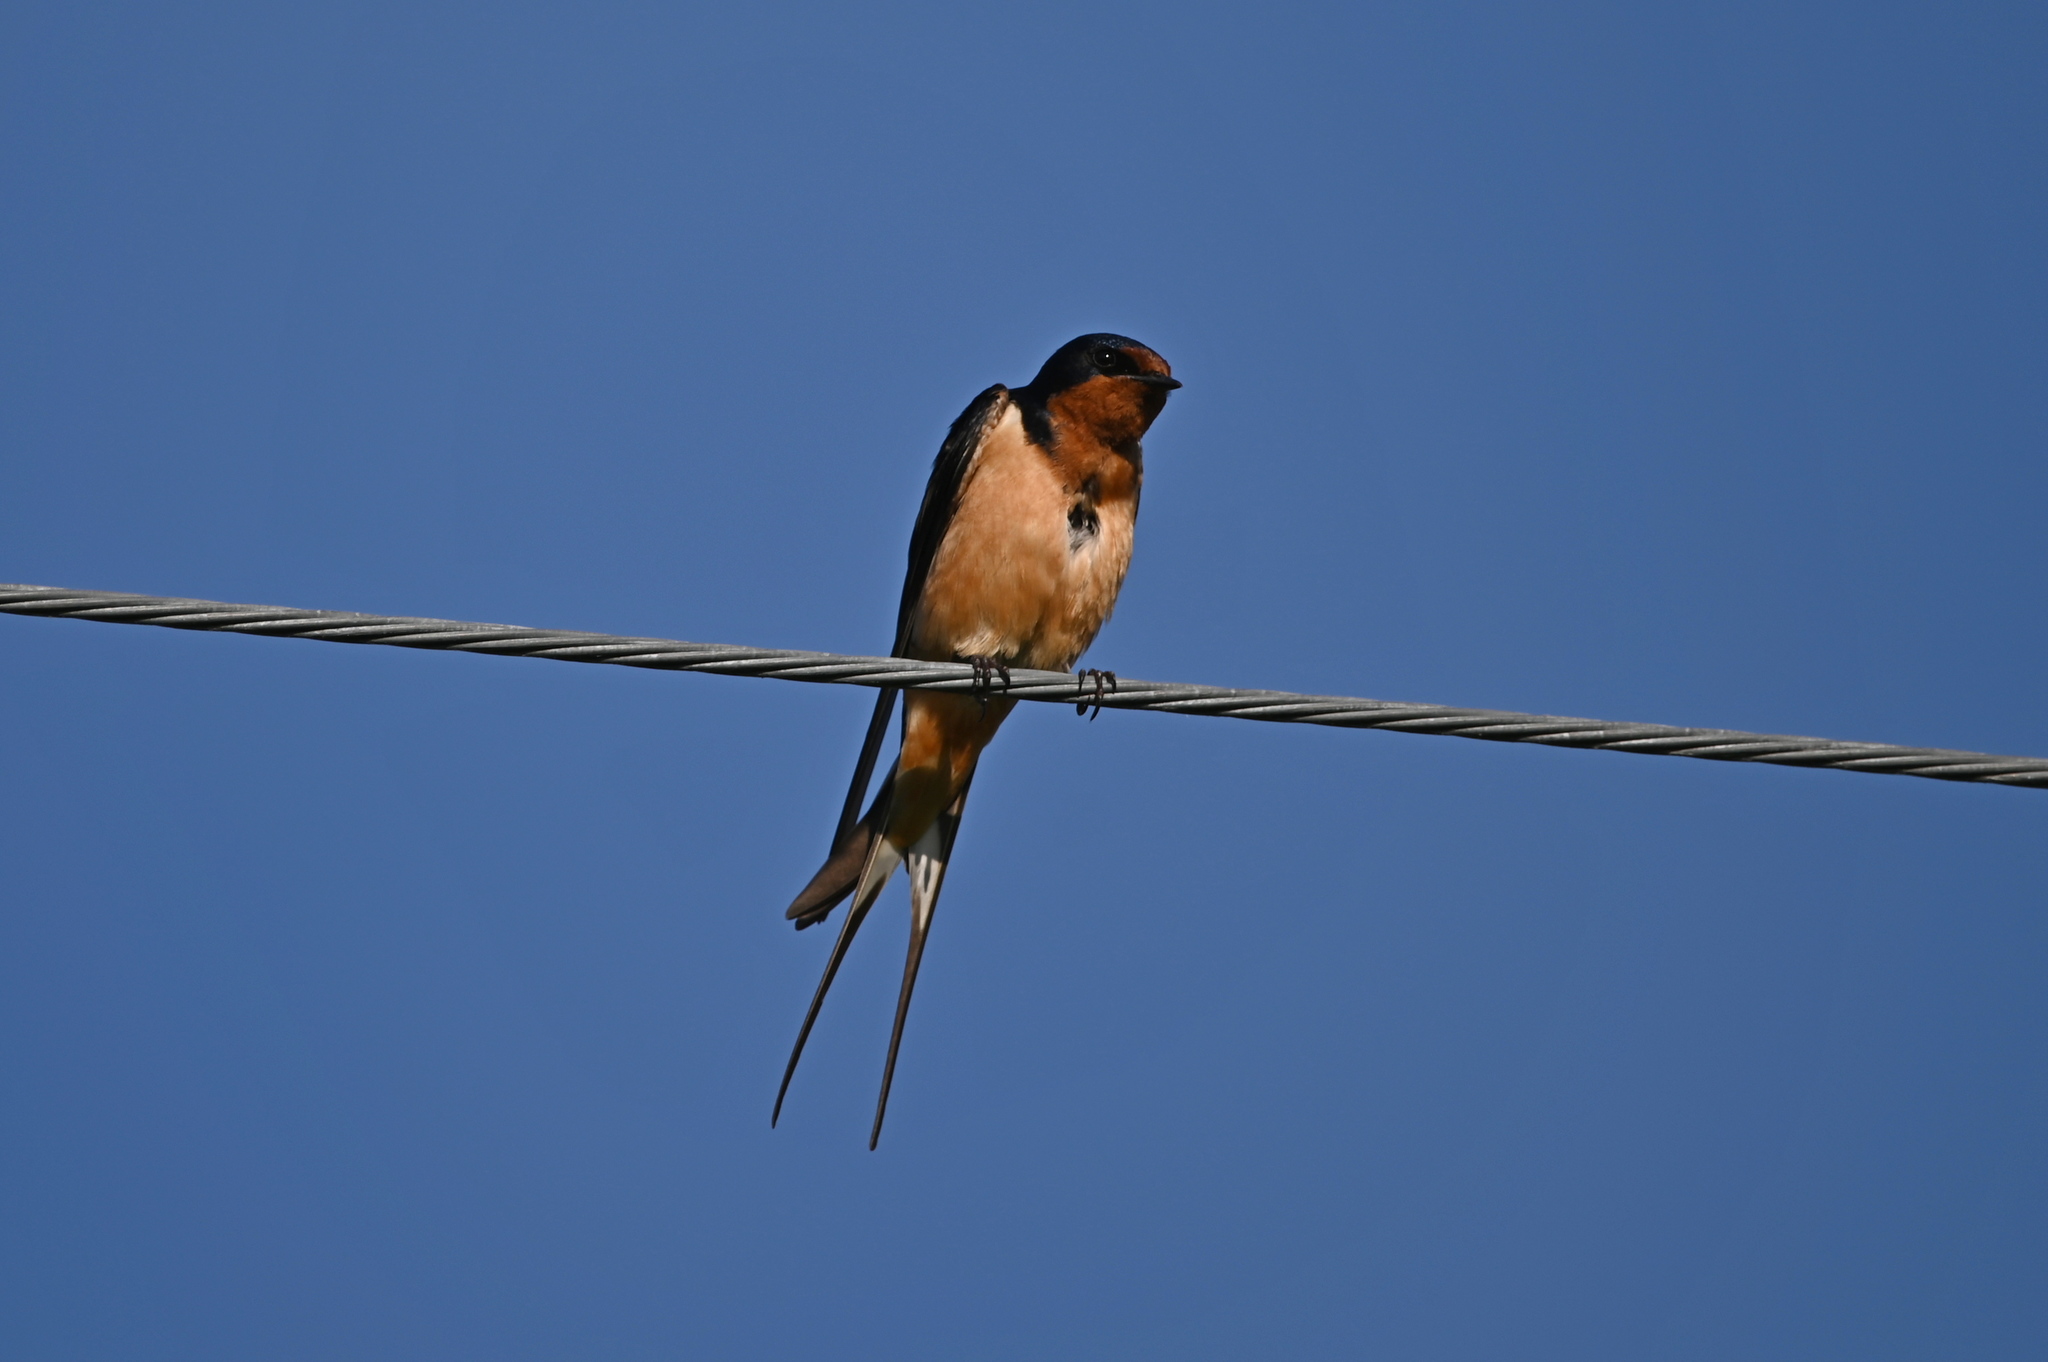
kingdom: Animalia
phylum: Chordata
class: Aves
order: Passeriformes
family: Hirundinidae
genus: Hirundo
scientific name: Hirundo rustica
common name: Barn swallow
